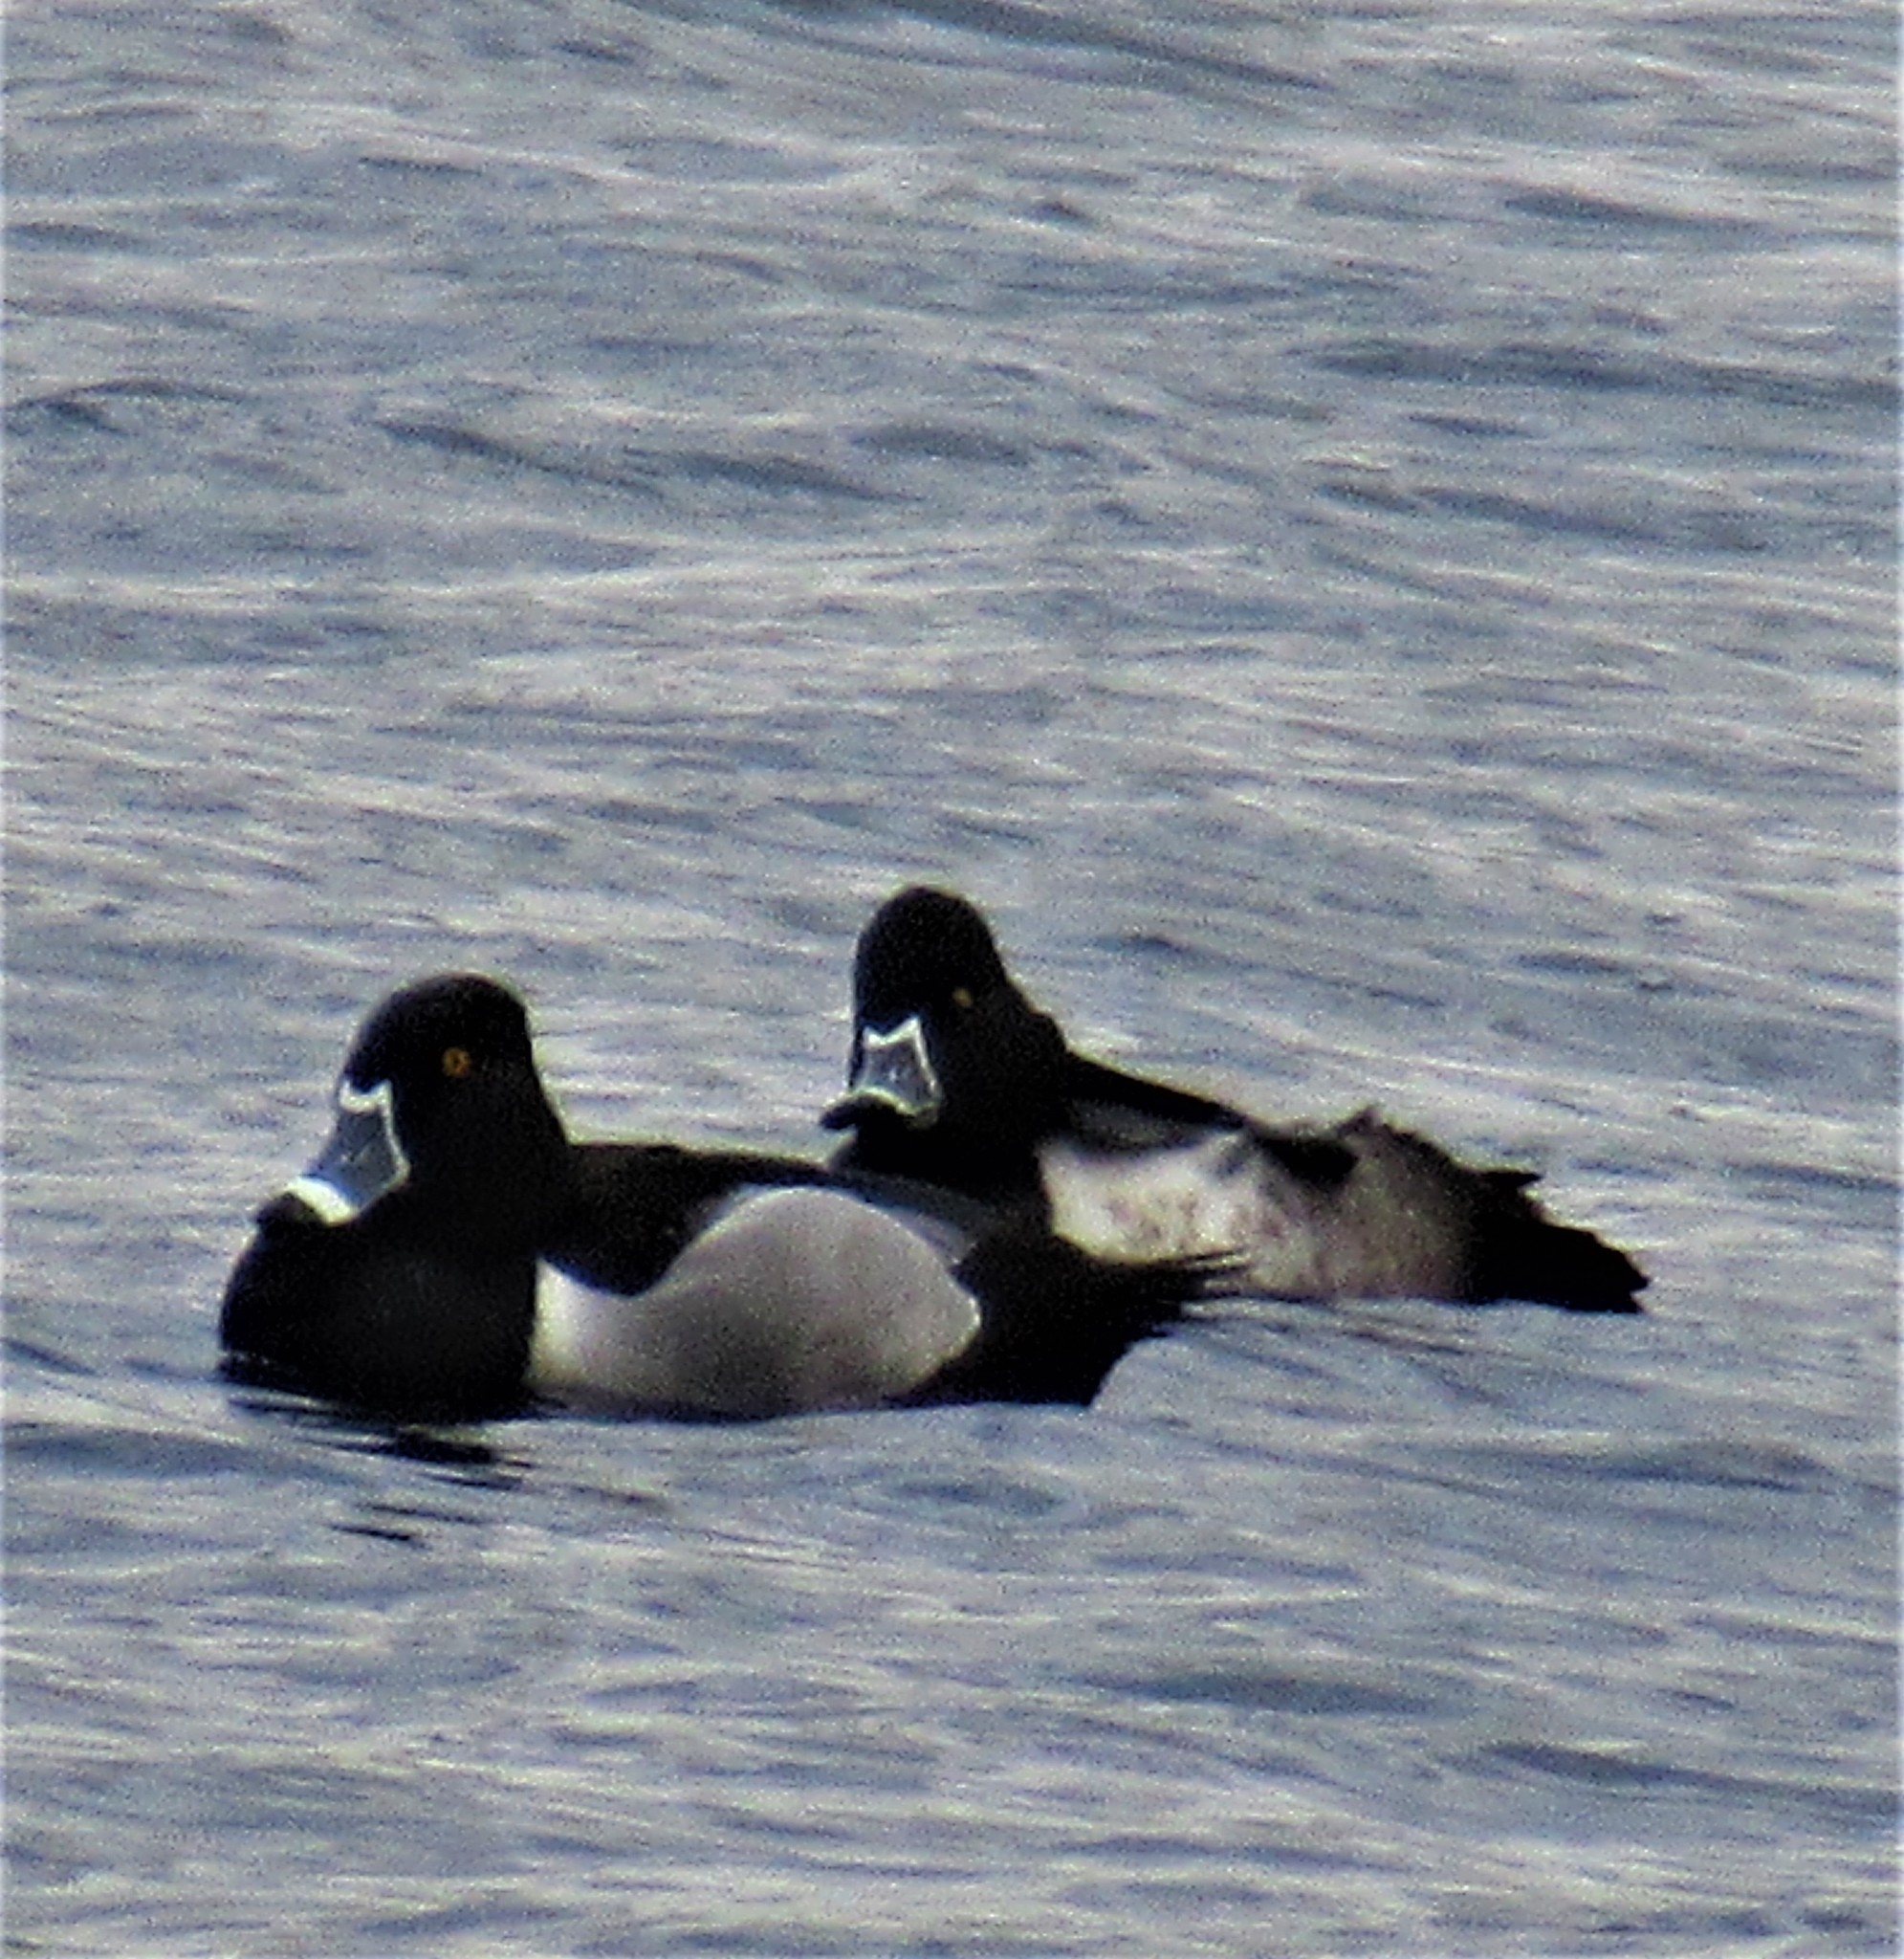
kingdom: Animalia
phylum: Chordata
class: Aves
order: Anseriformes
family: Anatidae
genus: Aythya
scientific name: Aythya collaris
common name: Ring-necked duck
